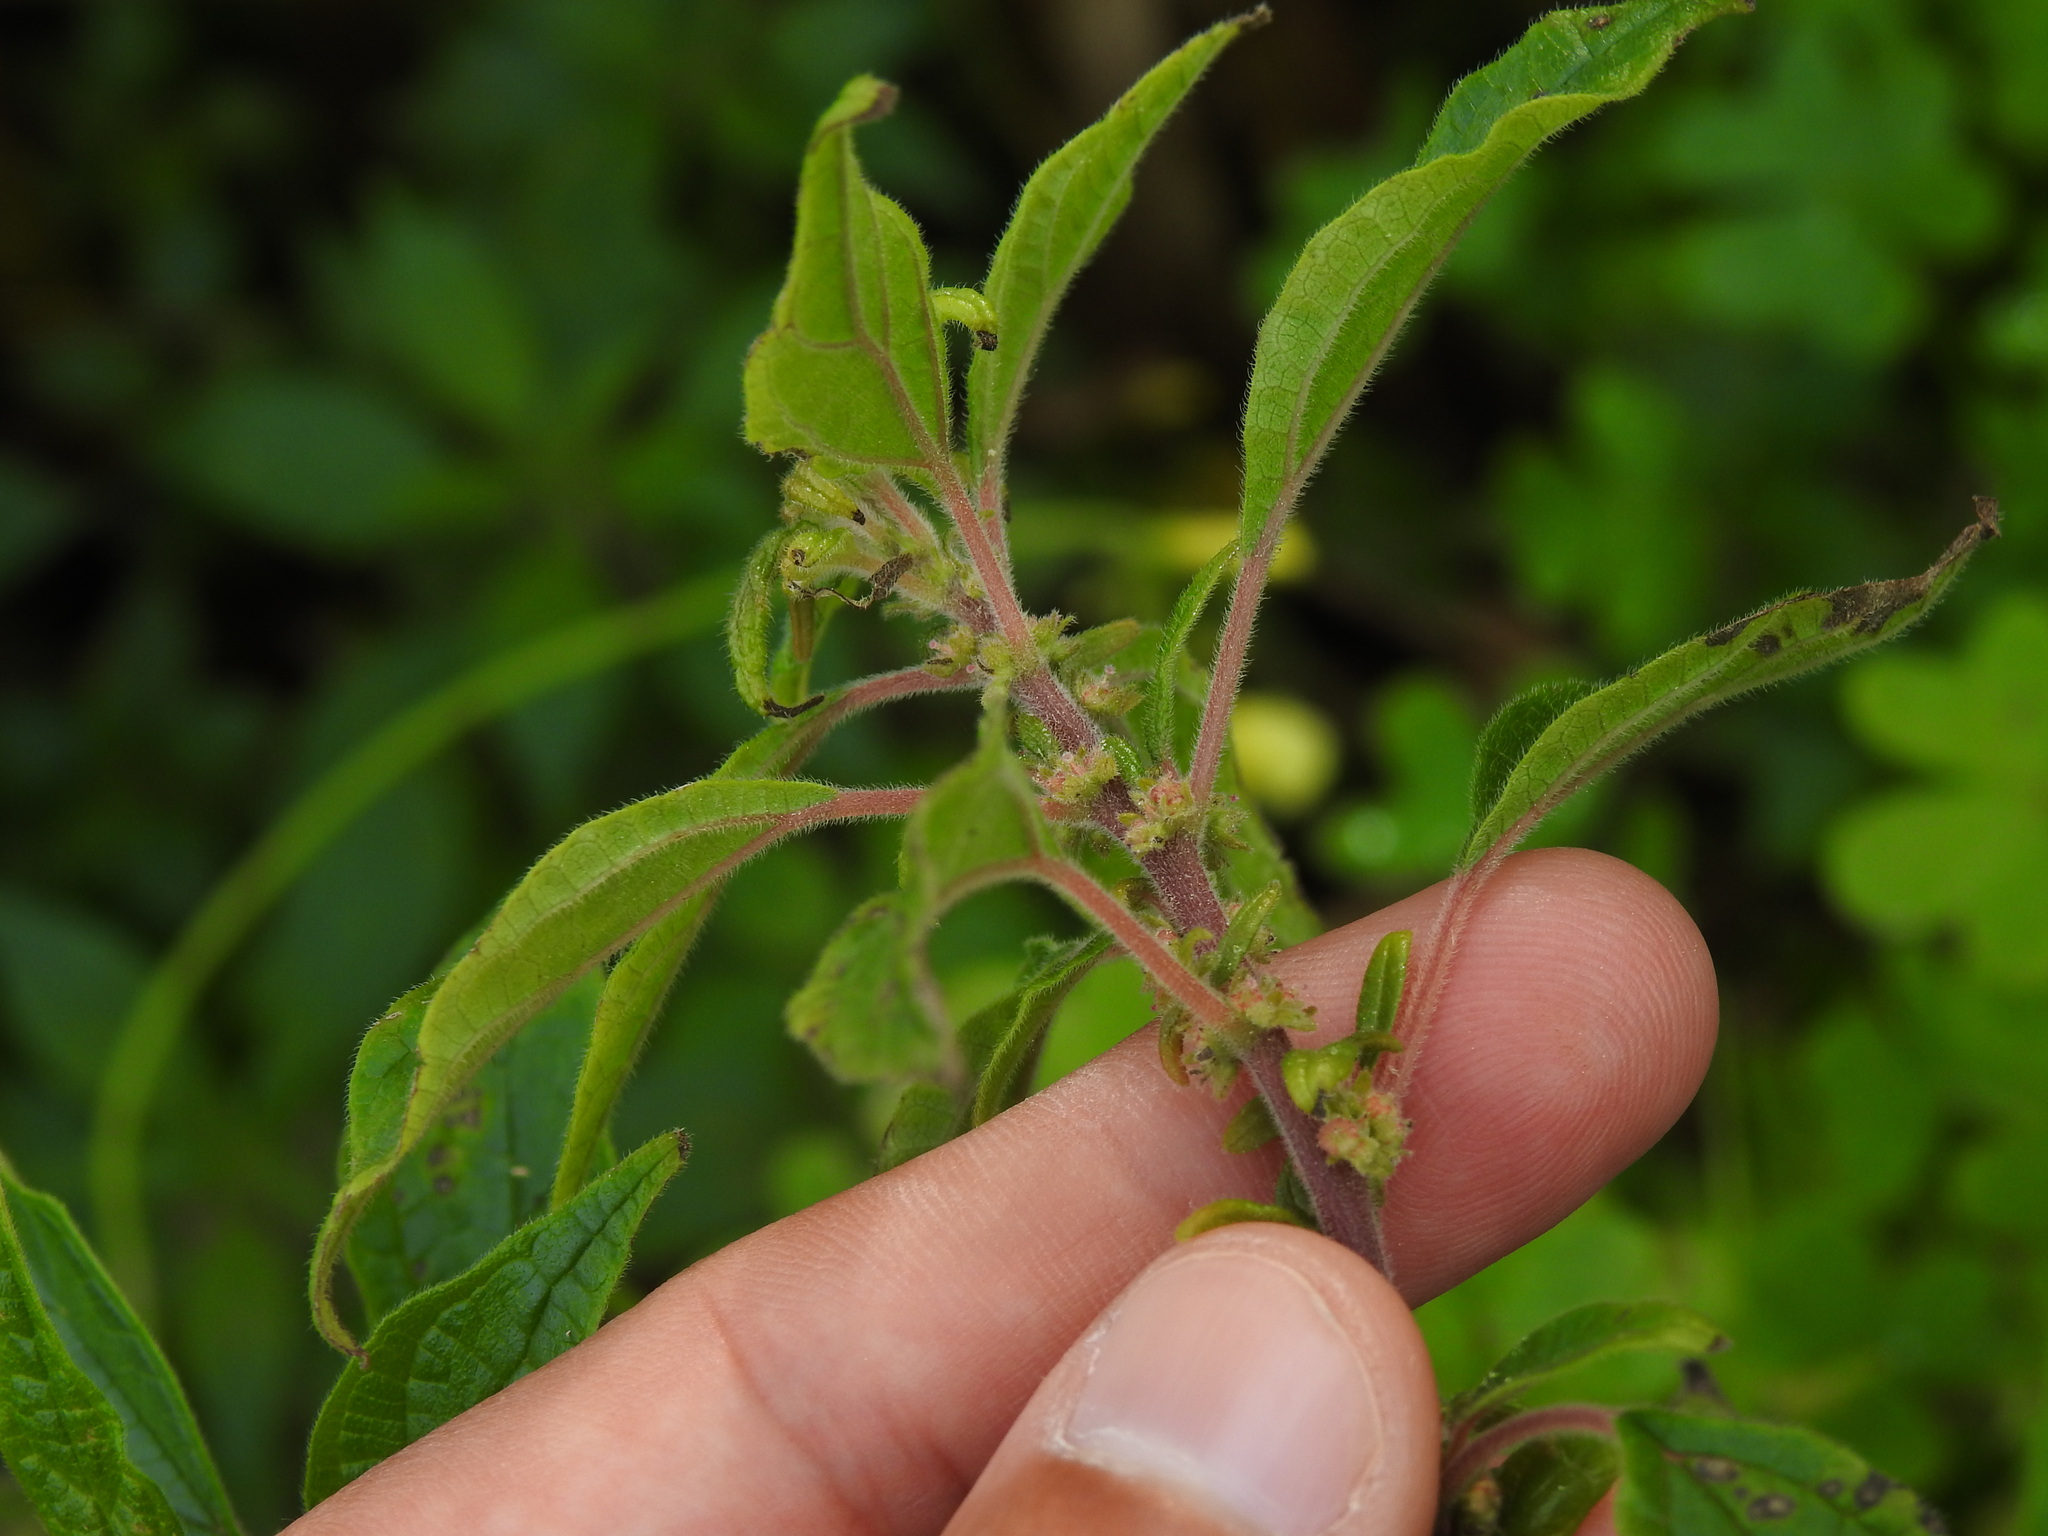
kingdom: Plantae
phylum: Tracheophyta
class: Magnoliopsida
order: Rosales
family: Urticaceae
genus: Parietaria
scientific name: Parietaria judaica
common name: Pellitory-of-the-wall
